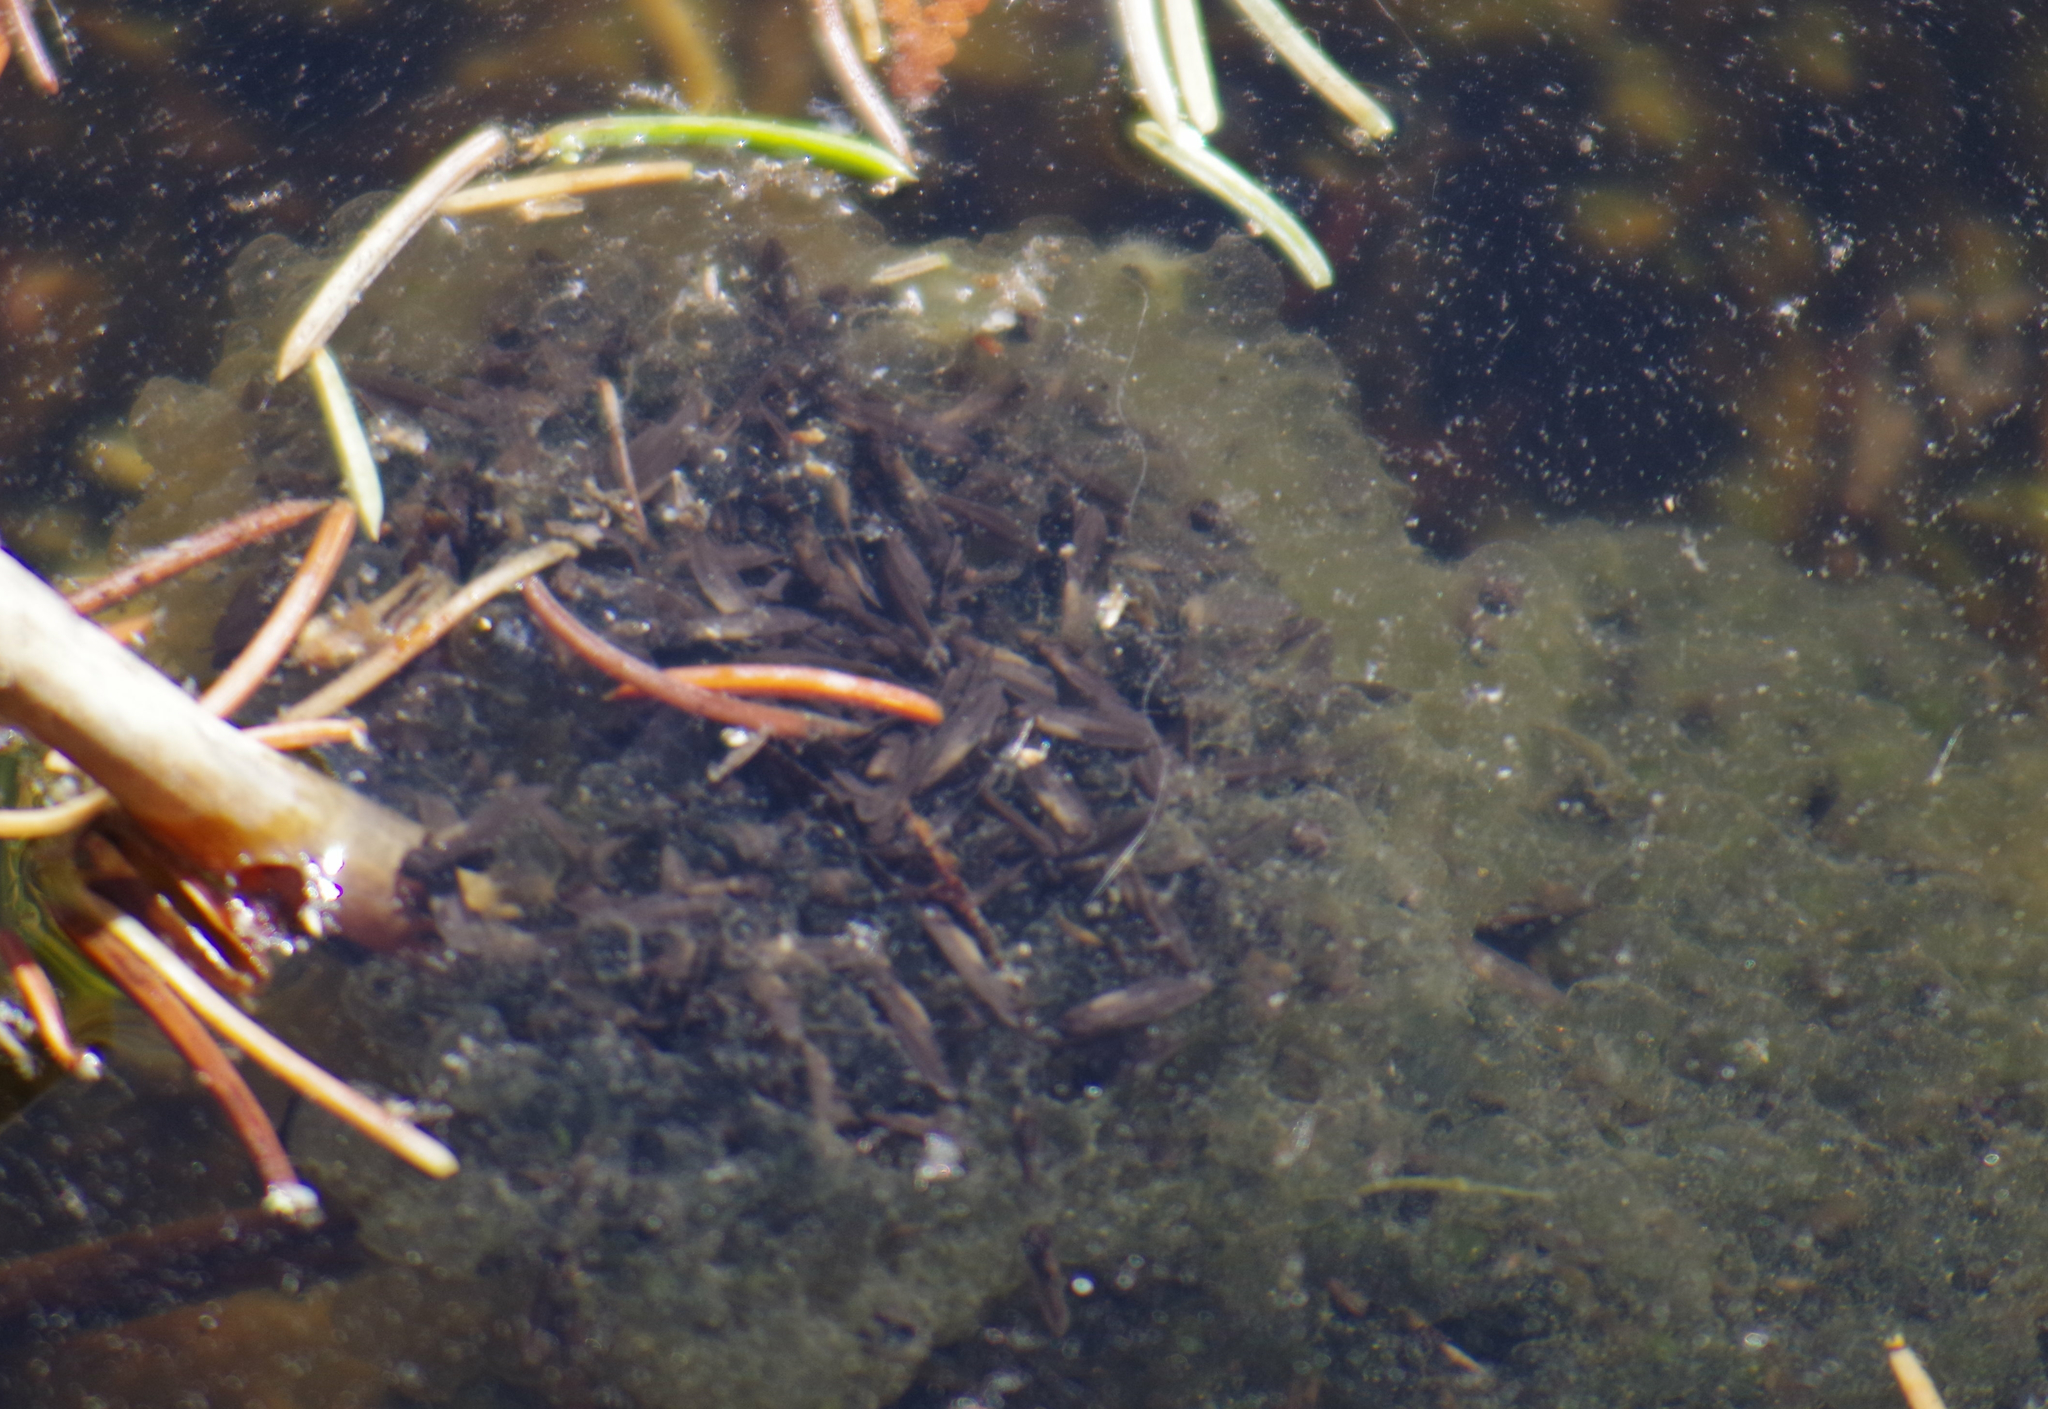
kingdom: Animalia
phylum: Chordata
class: Amphibia
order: Anura
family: Ranidae
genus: Lithobates
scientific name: Lithobates sylvaticus
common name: Wood frog
